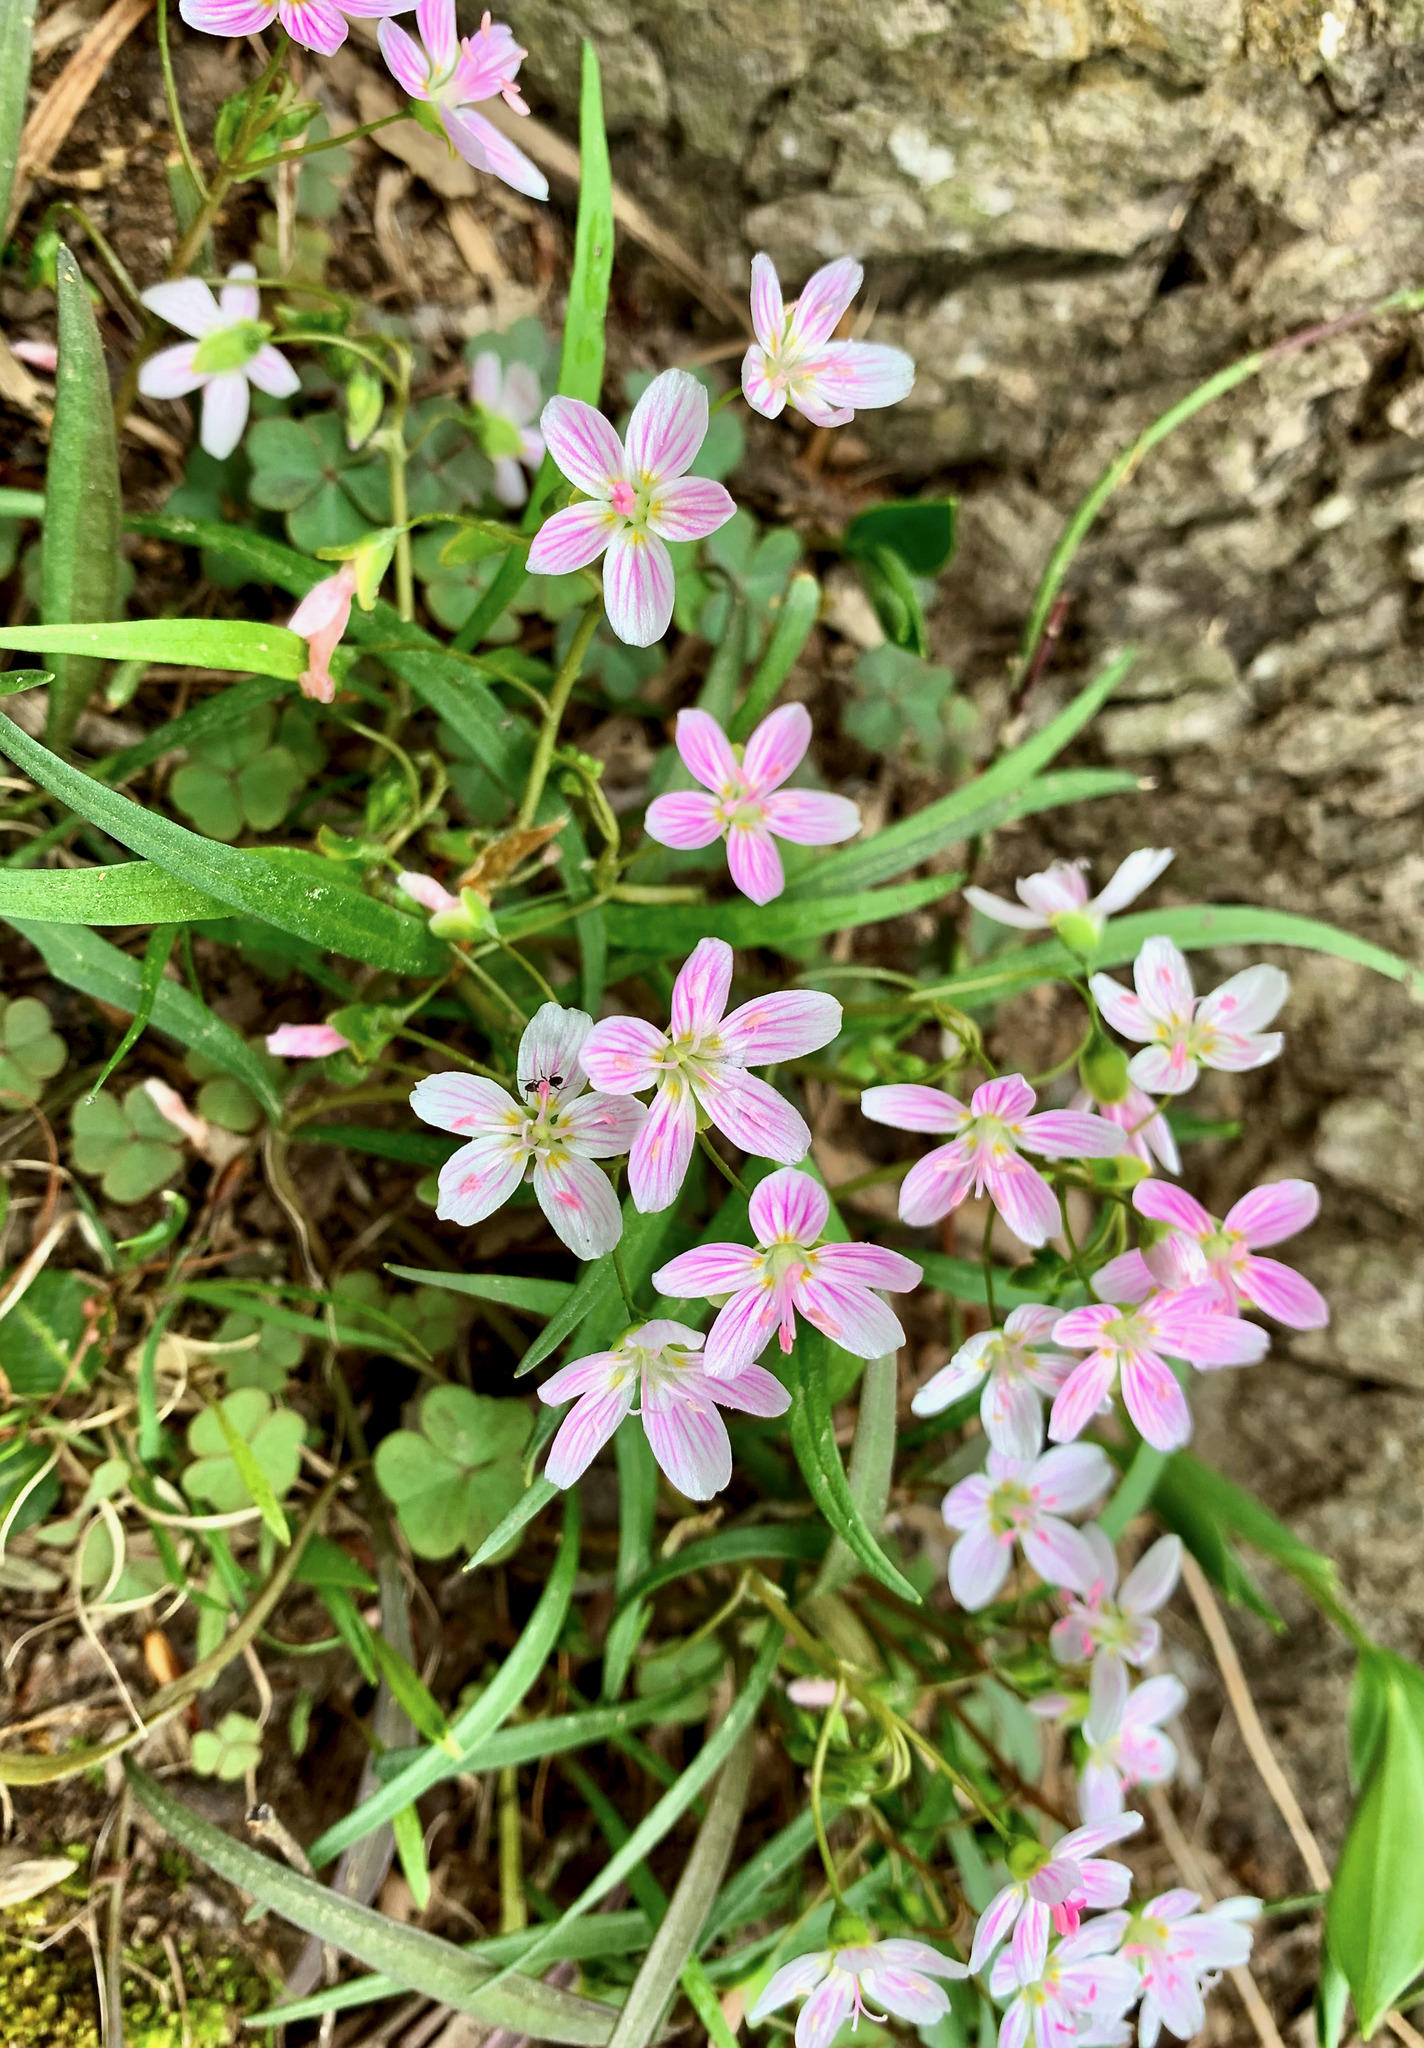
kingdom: Plantae
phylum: Tracheophyta
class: Magnoliopsida
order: Caryophyllales
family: Montiaceae
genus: Claytonia
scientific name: Claytonia virginica
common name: Virginia springbeauty
